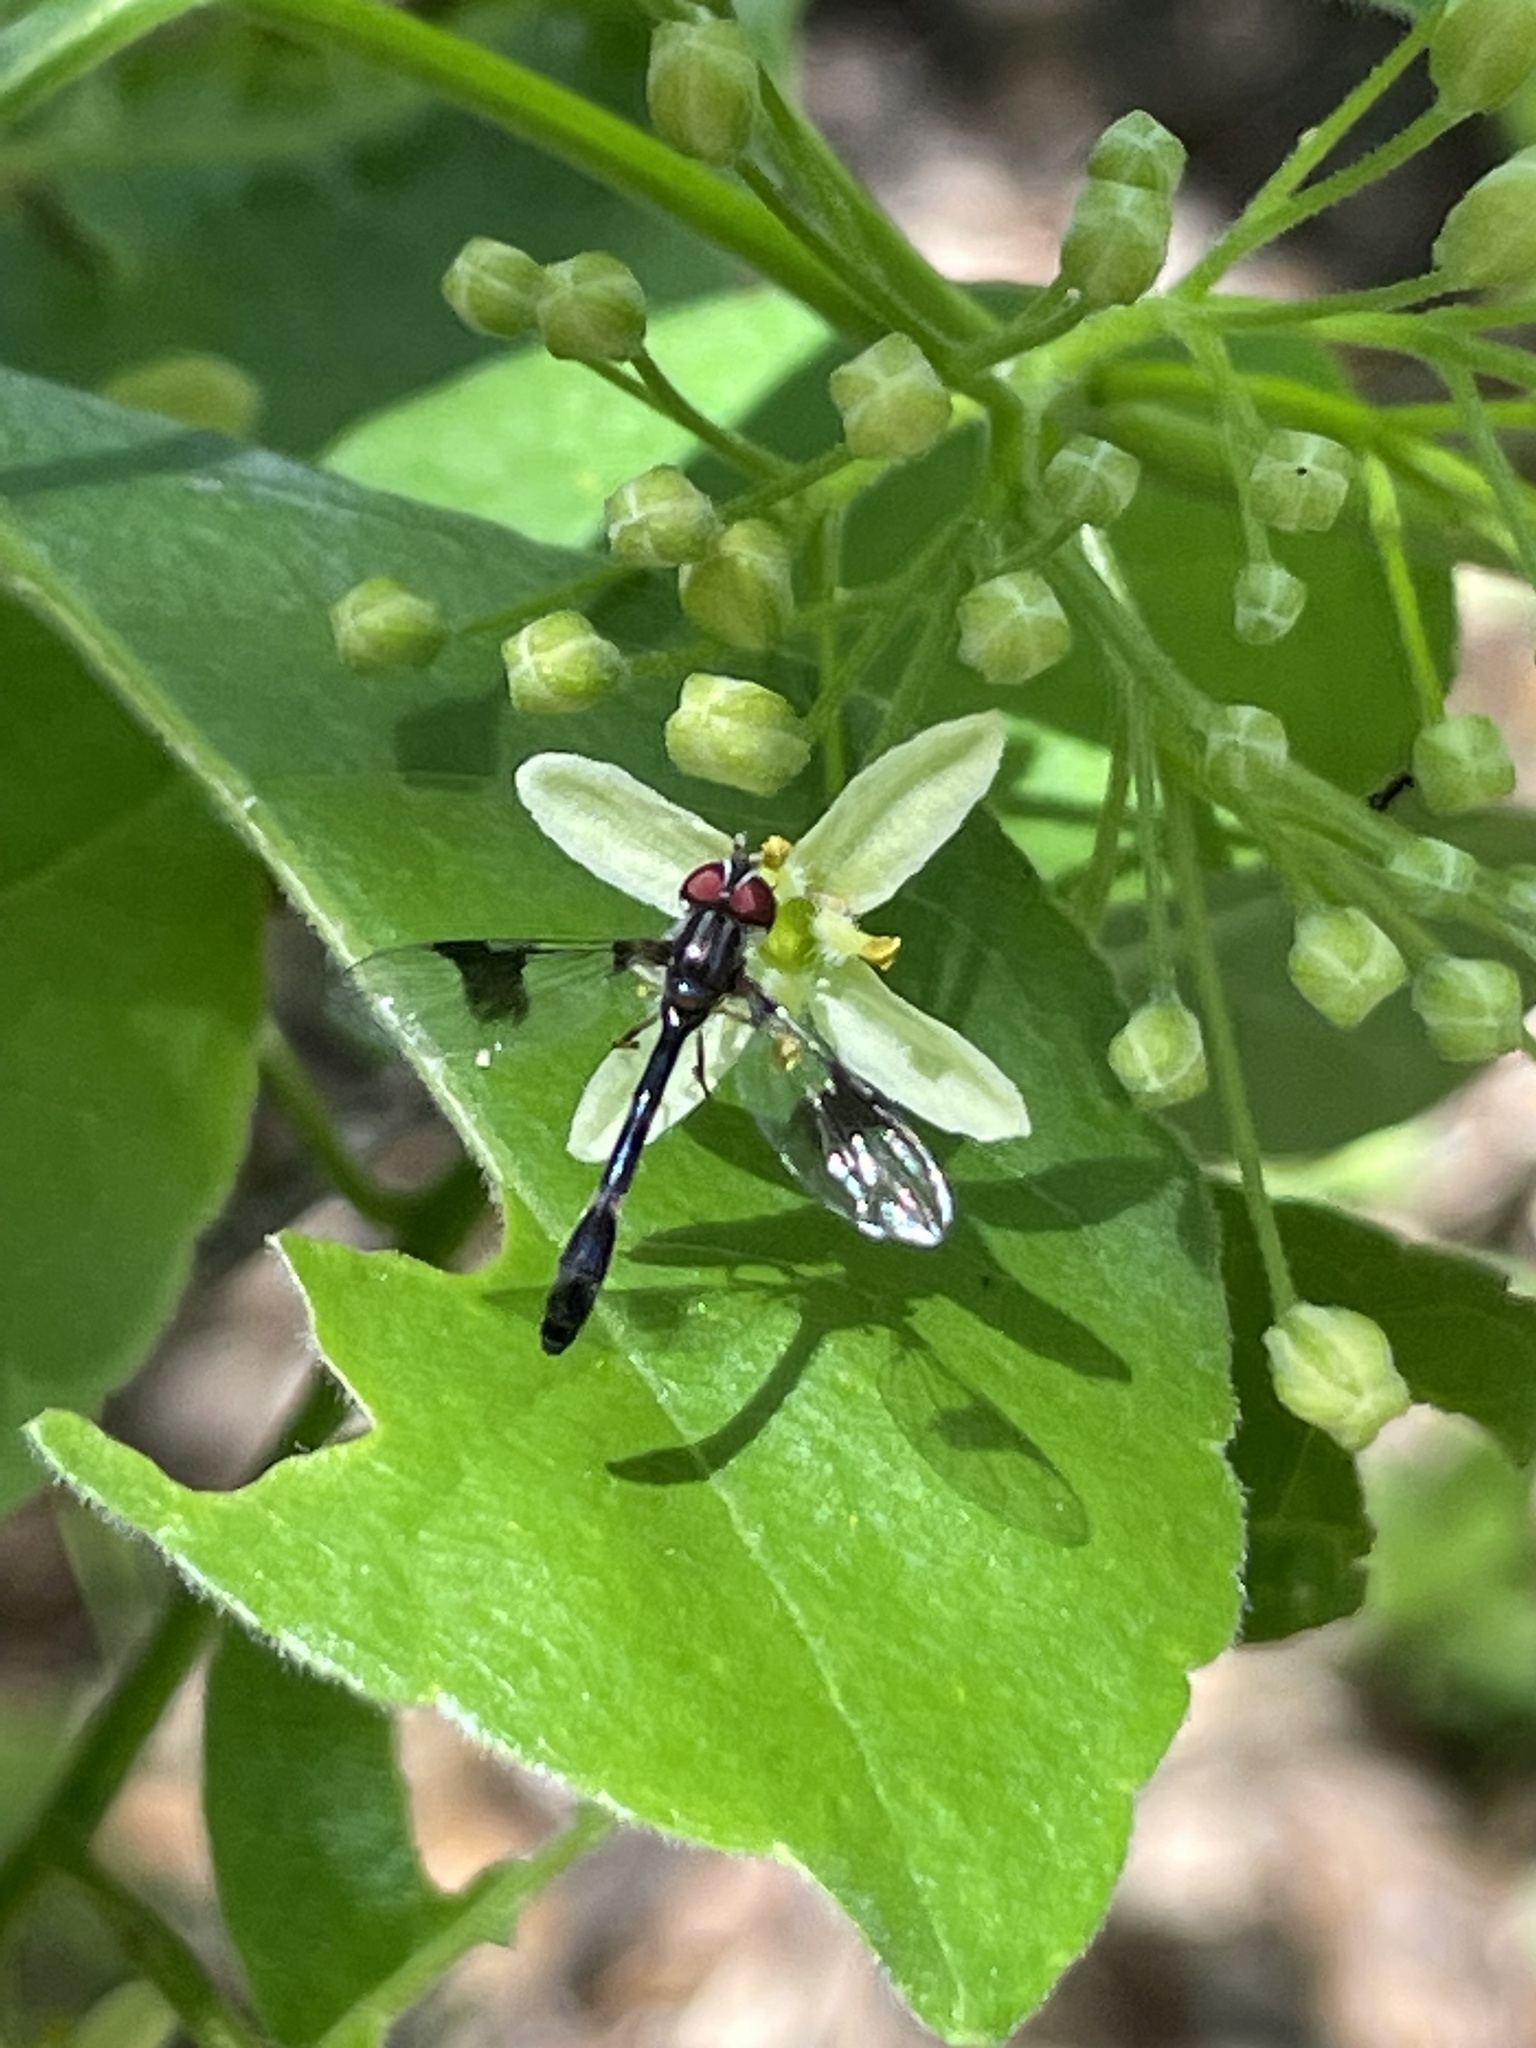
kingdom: Animalia
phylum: Arthropoda
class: Insecta
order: Diptera
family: Syrphidae
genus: Hypocritanus
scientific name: Hypocritanus fascipennis
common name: Eastern band-winged hover fly
